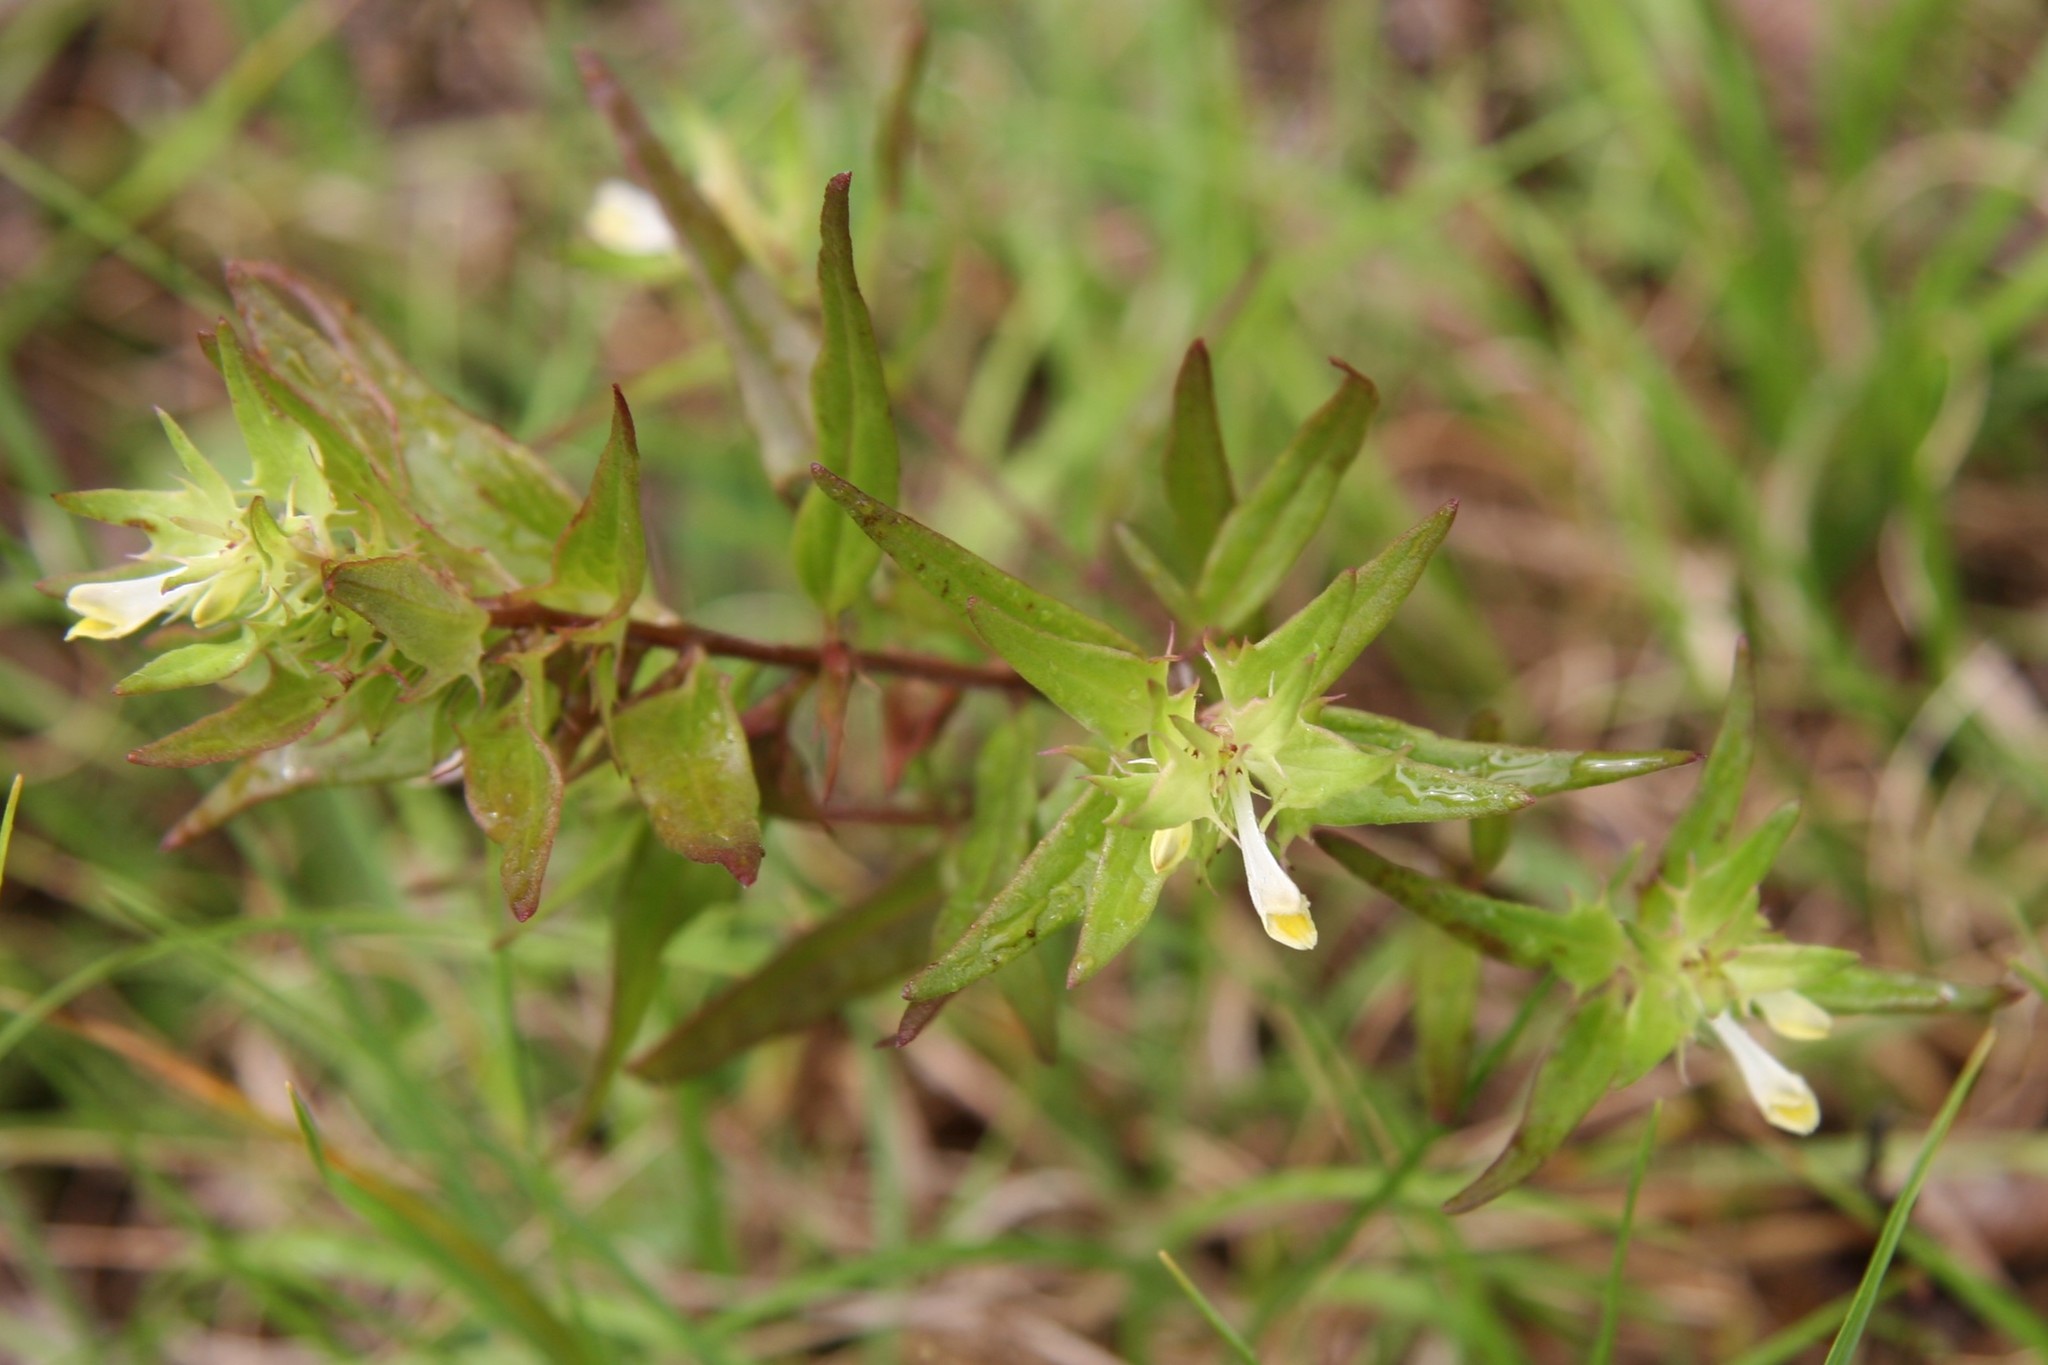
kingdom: Plantae
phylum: Tracheophyta
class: Magnoliopsida
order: Lamiales
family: Orobanchaceae
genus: Melampyrum
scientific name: Melampyrum lineare
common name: American cow-wheat
